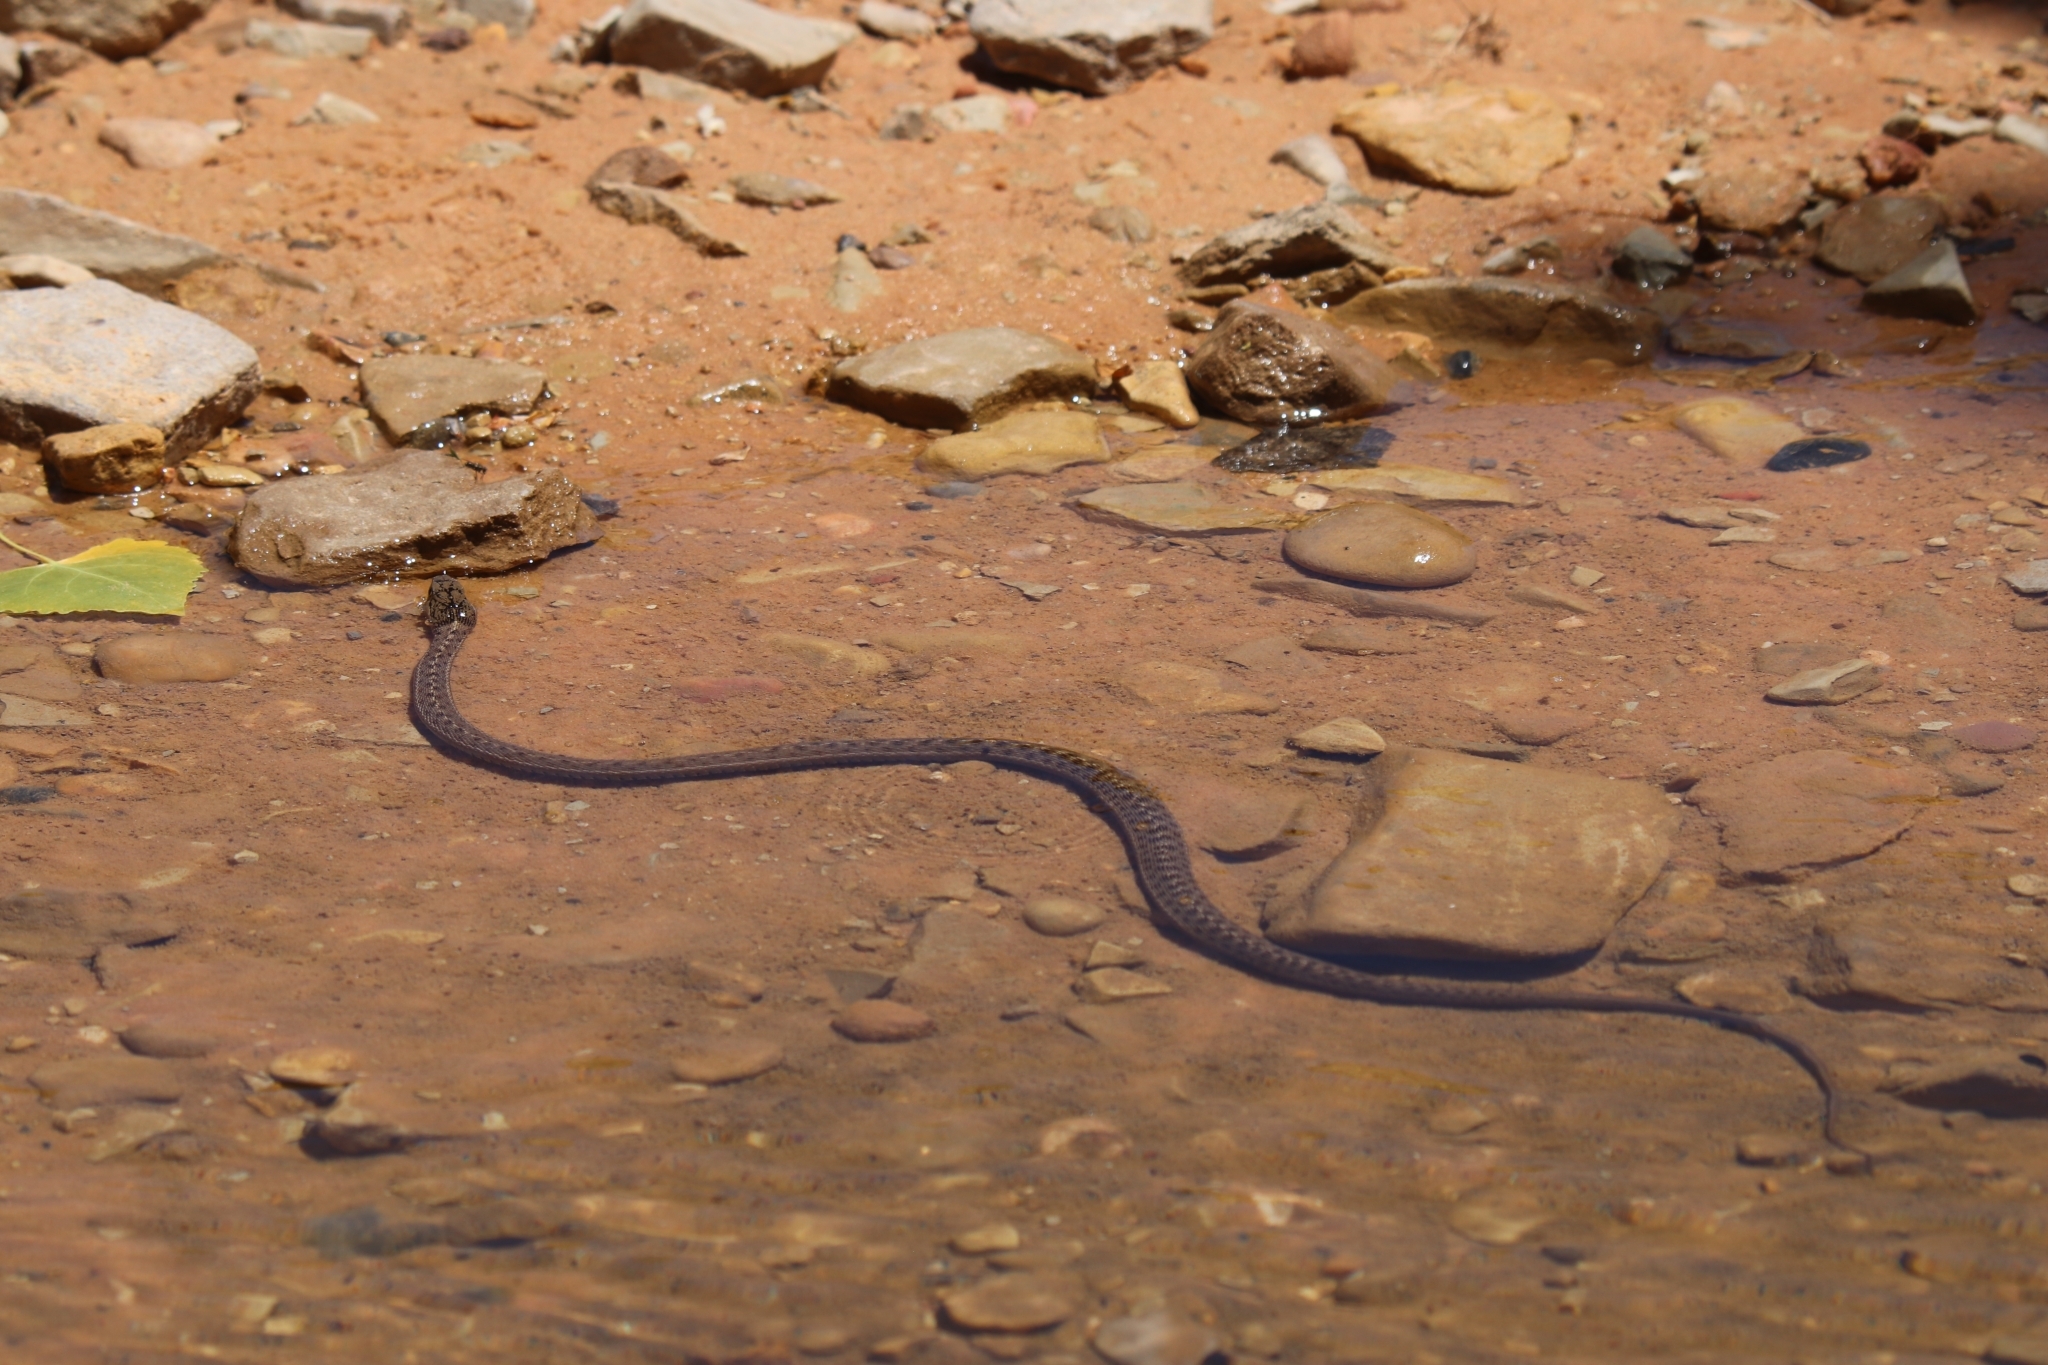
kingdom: Animalia
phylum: Chordata
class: Squamata
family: Colubridae
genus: Thamnophis
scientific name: Thamnophis elegans
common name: Western terrestrial garter snake
